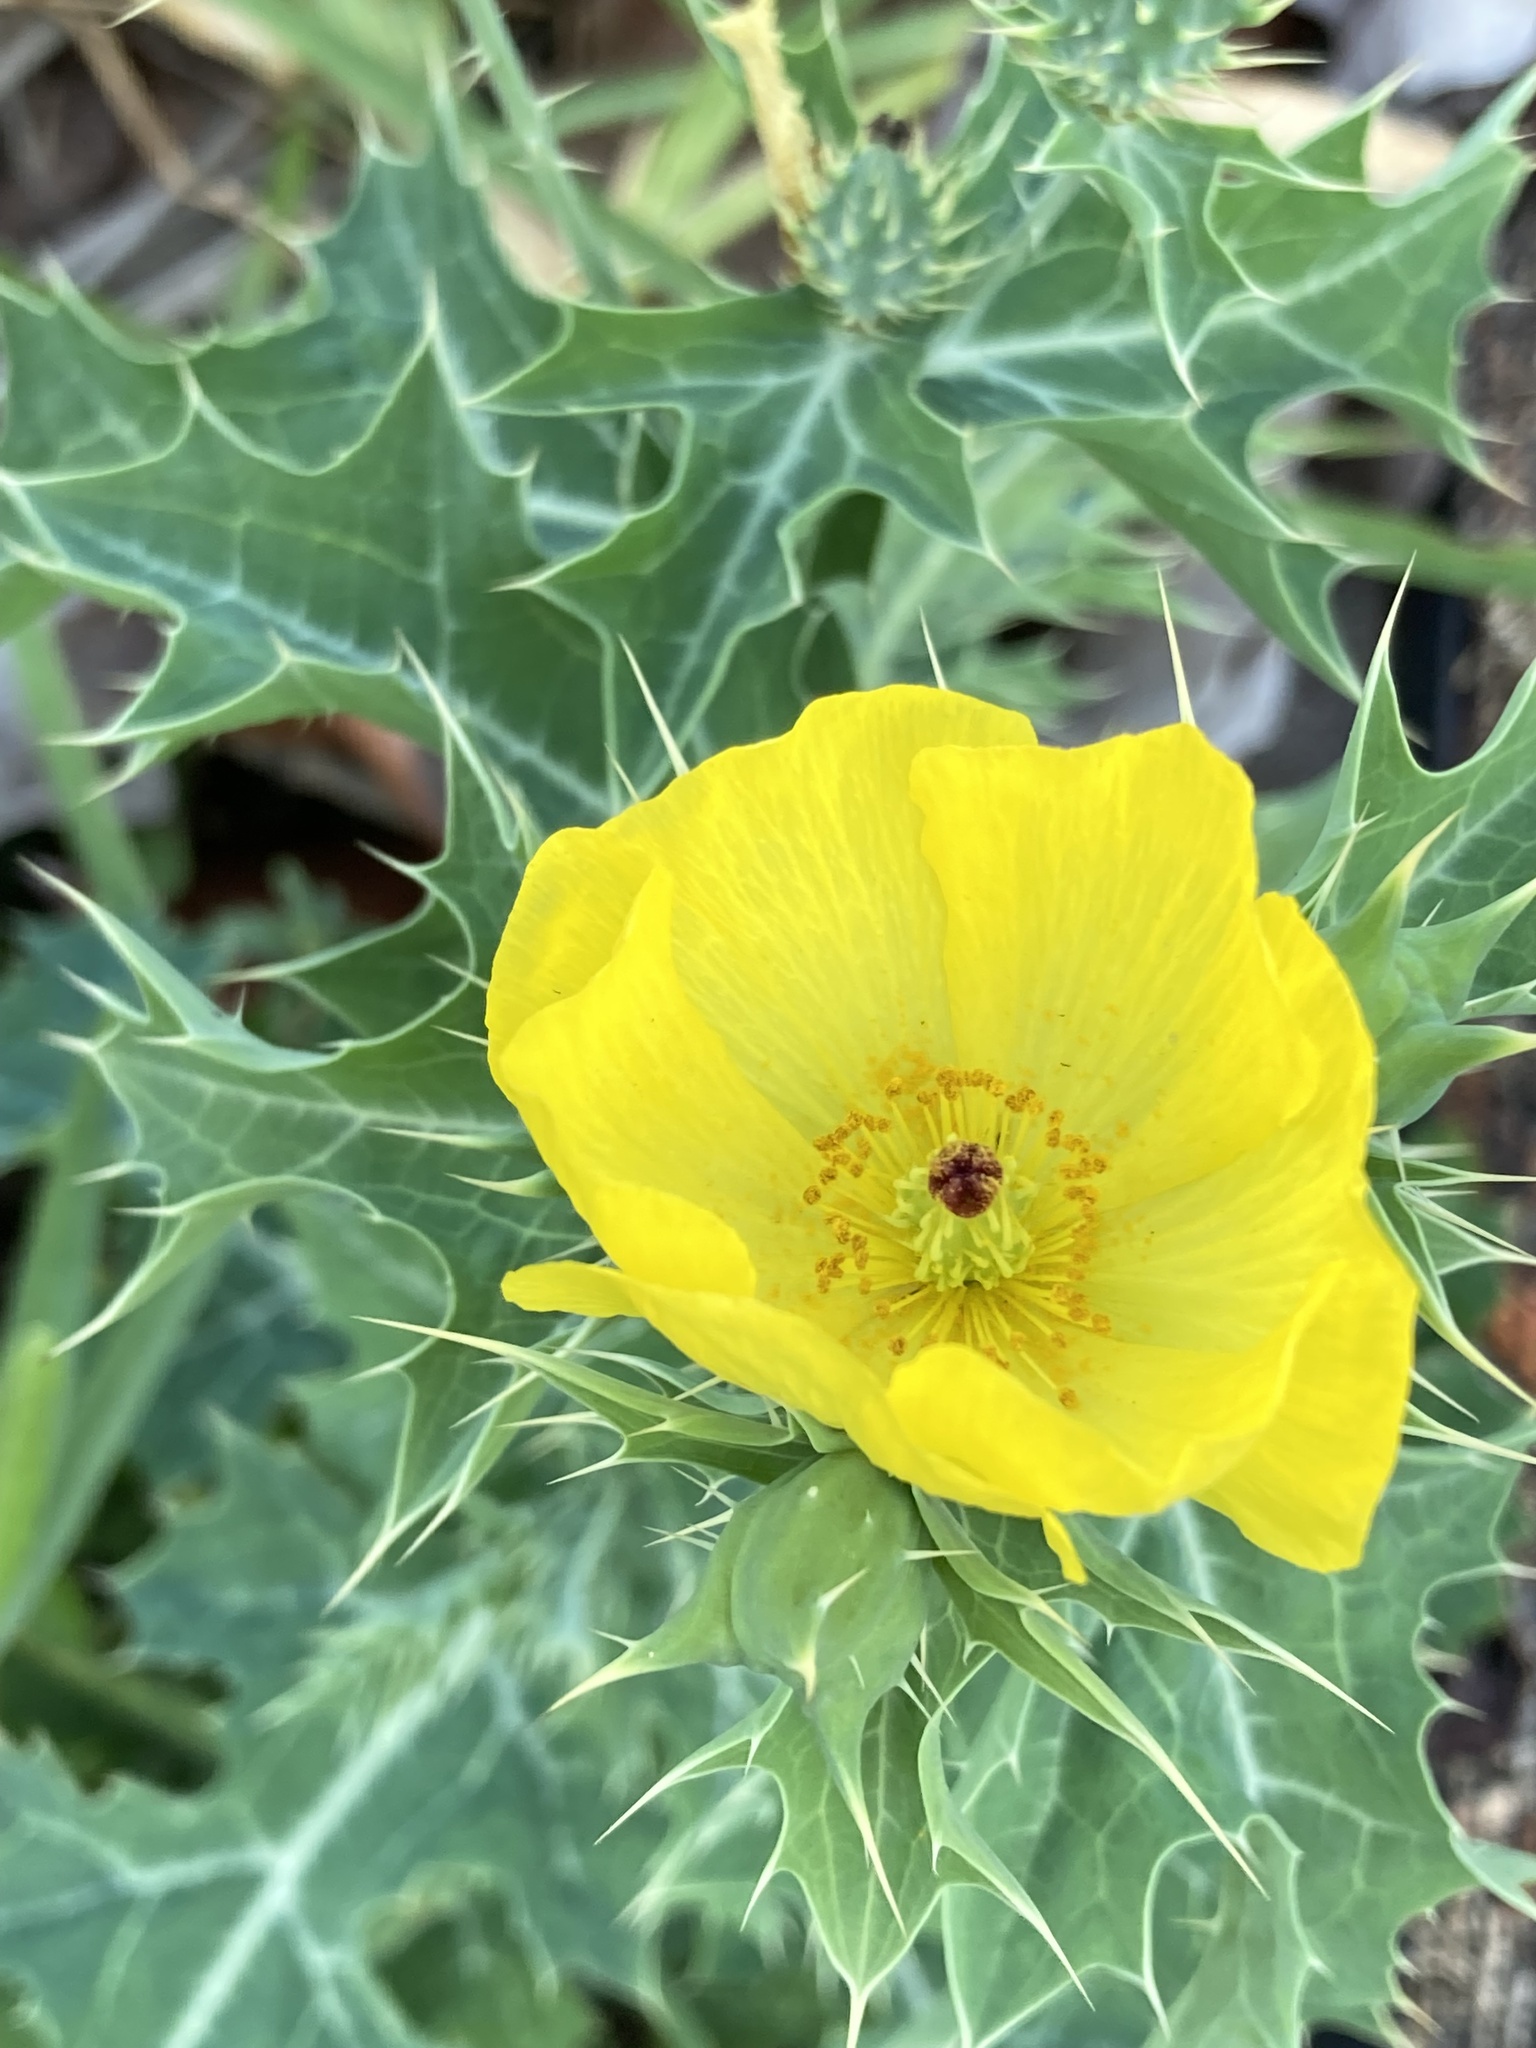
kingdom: Plantae
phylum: Tracheophyta
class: Magnoliopsida
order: Ranunculales
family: Papaveraceae
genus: Argemone
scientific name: Argemone mexicana
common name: Mexican poppy
